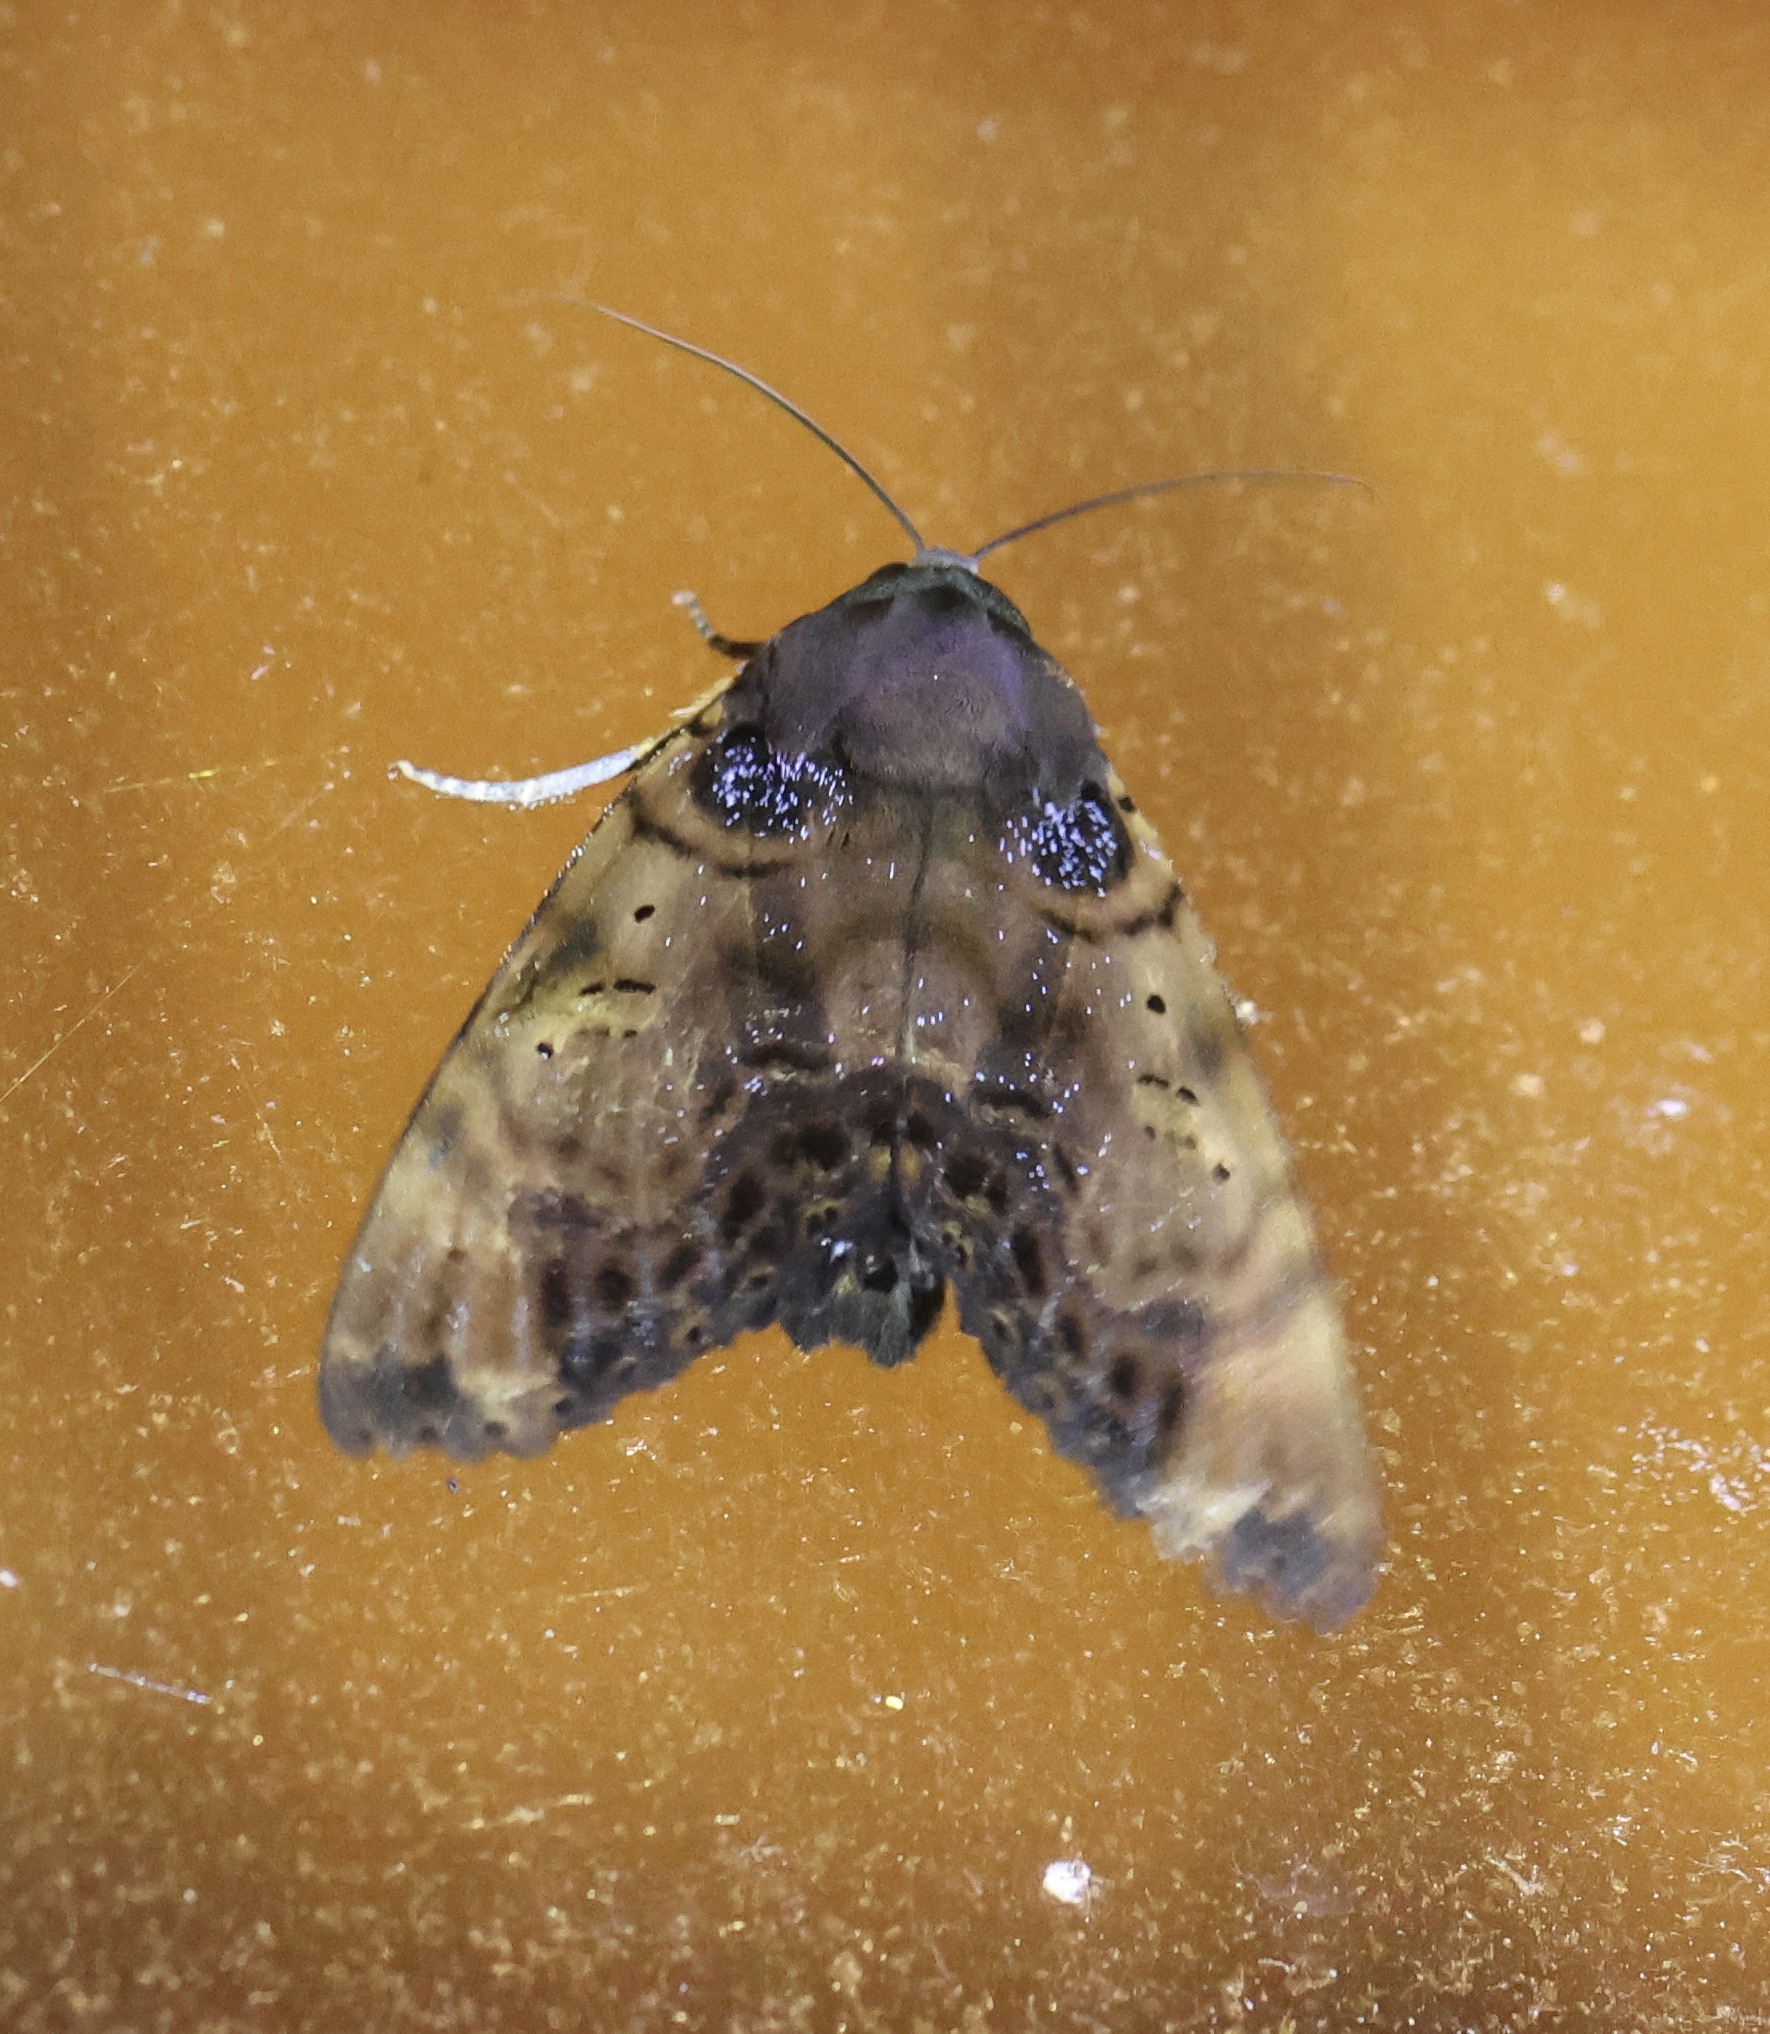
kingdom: Animalia
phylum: Arthropoda
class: Insecta
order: Lepidoptera
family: Erebidae
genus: Arcte
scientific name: Arcte modesta
